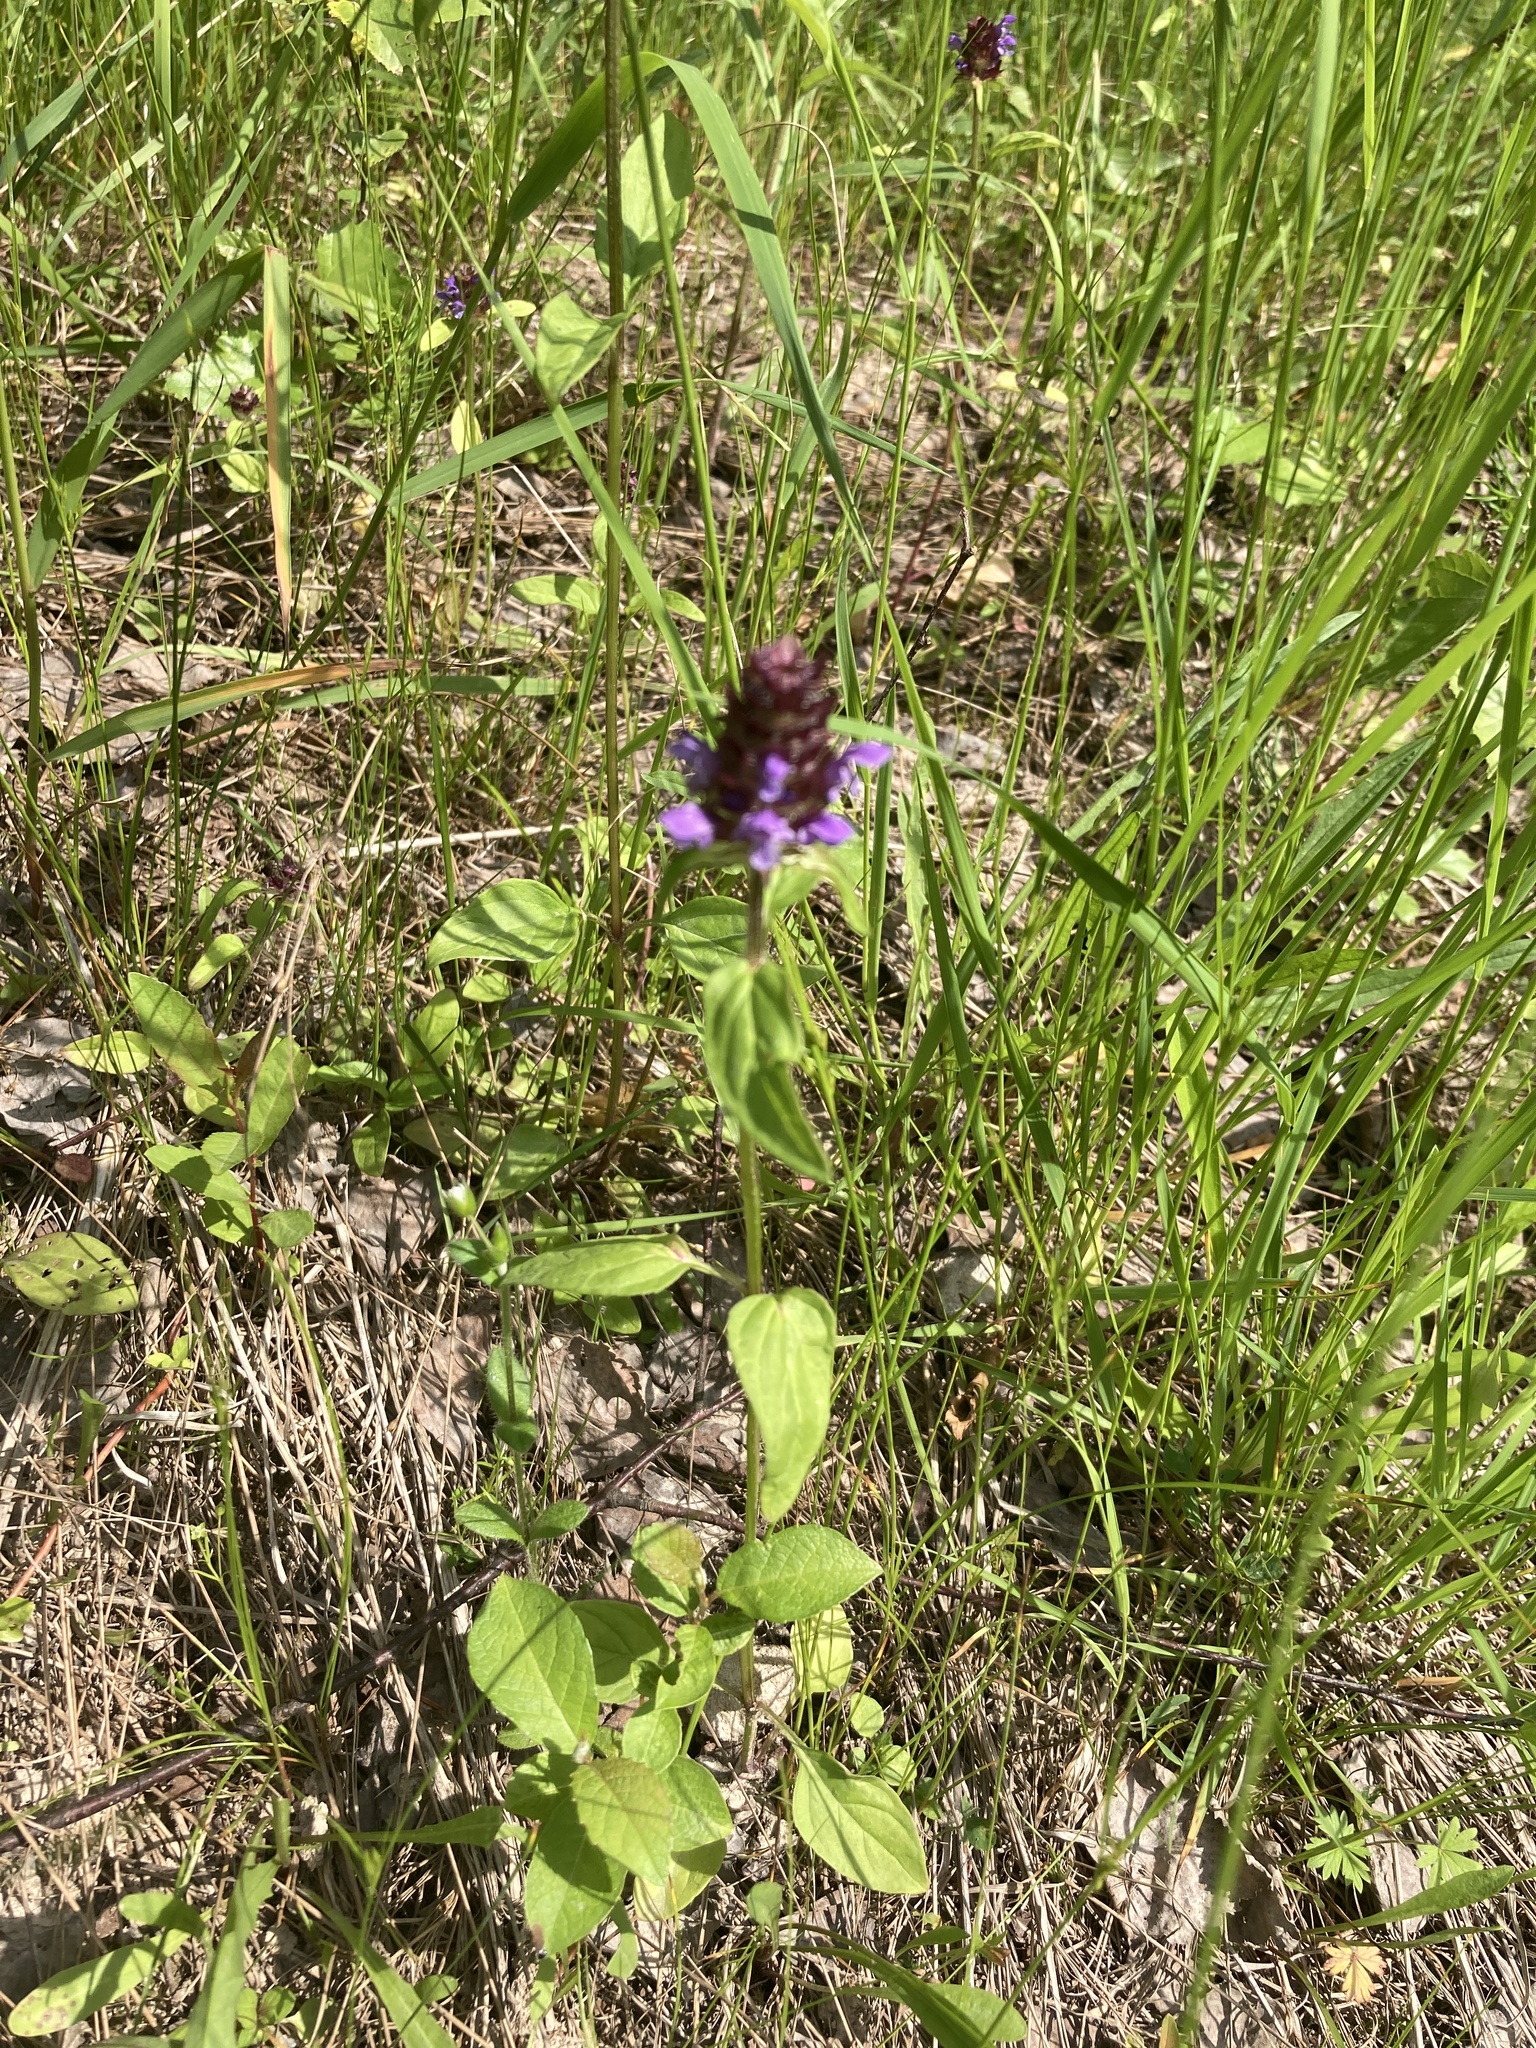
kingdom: Plantae
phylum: Tracheophyta
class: Magnoliopsida
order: Lamiales
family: Lamiaceae
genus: Prunella
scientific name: Prunella vulgaris
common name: Heal-all
